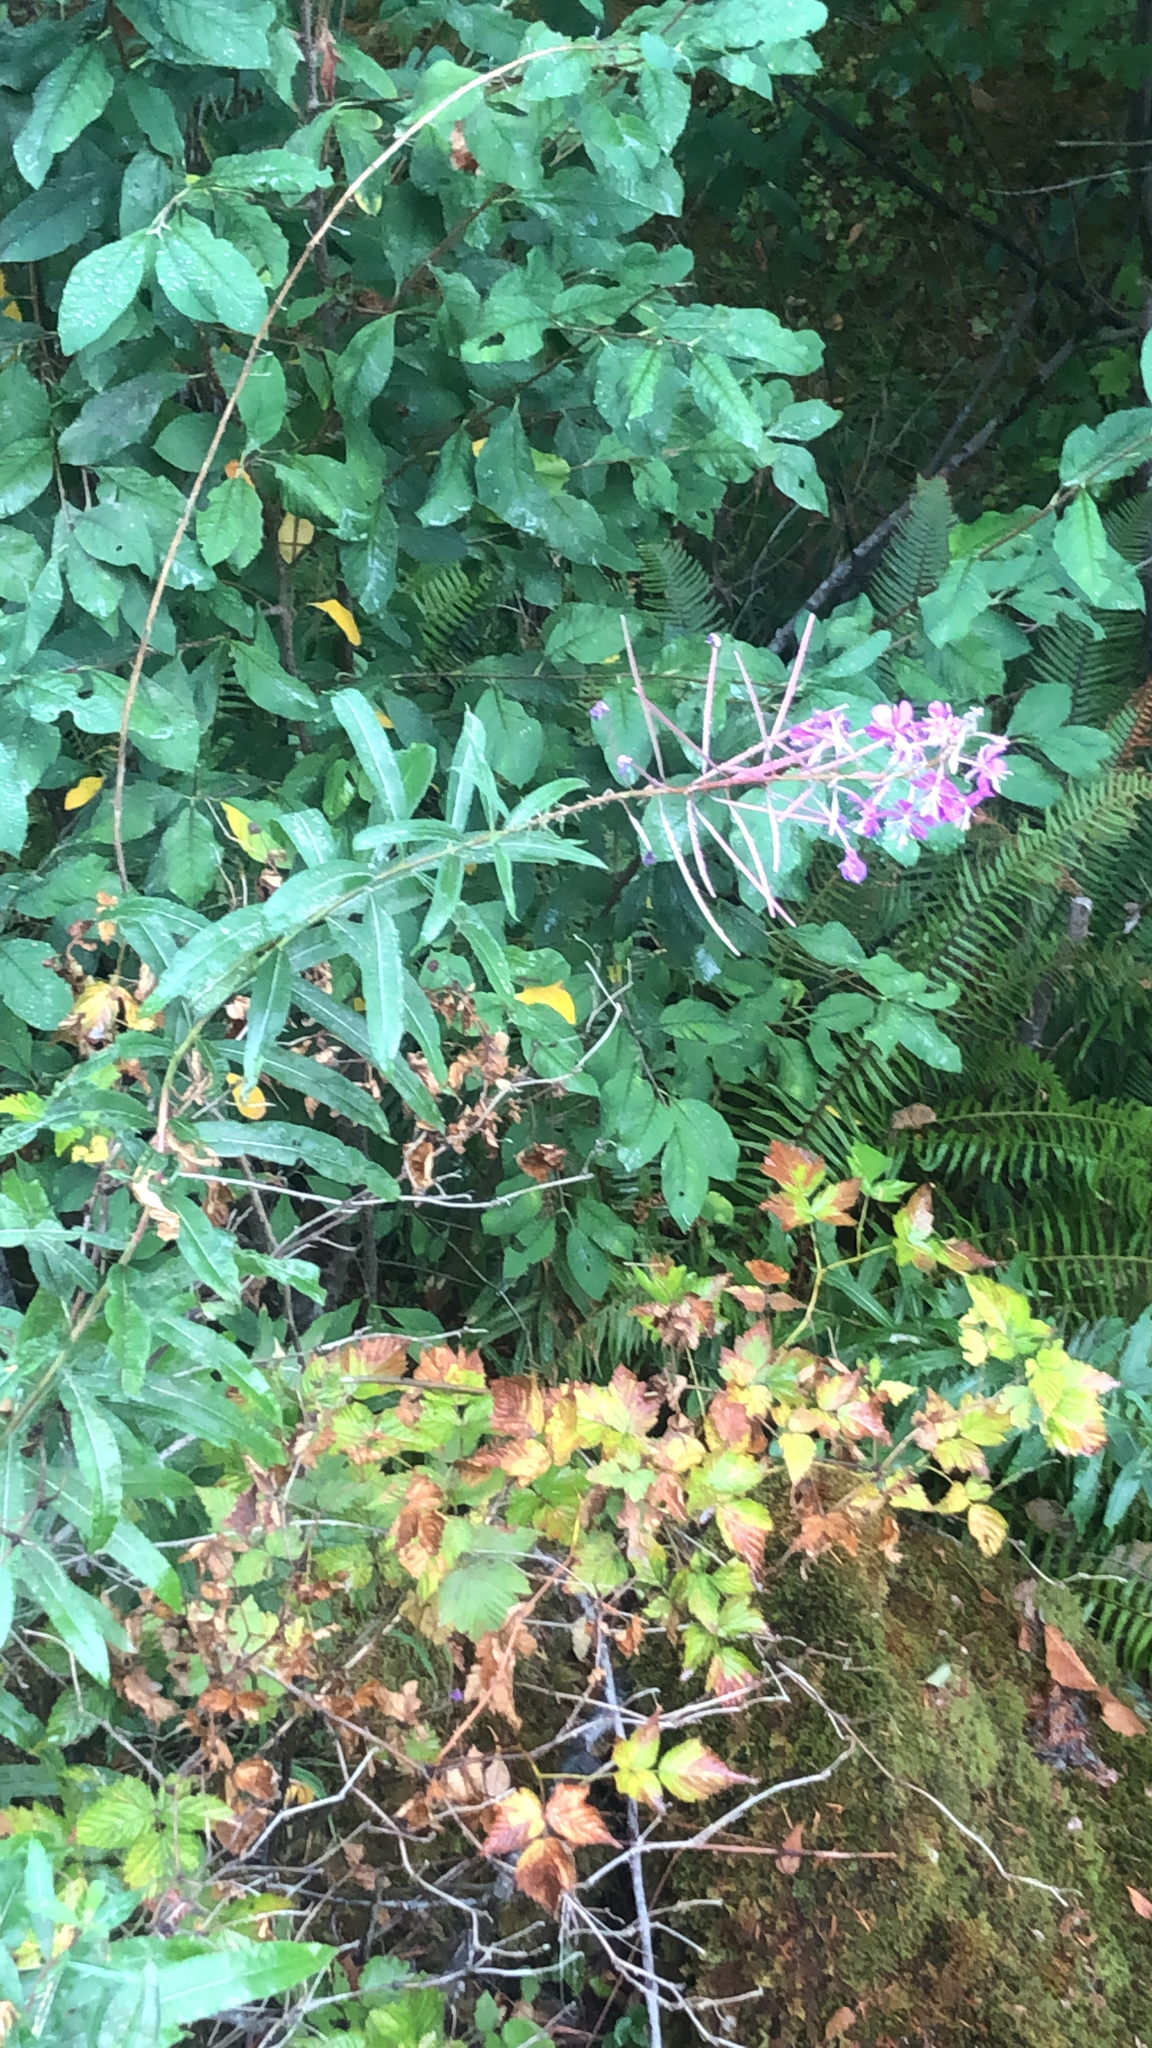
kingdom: Plantae
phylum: Tracheophyta
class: Magnoliopsida
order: Myrtales
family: Onagraceae
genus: Chamaenerion
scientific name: Chamaenerion angustifolium
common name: Fireweed
